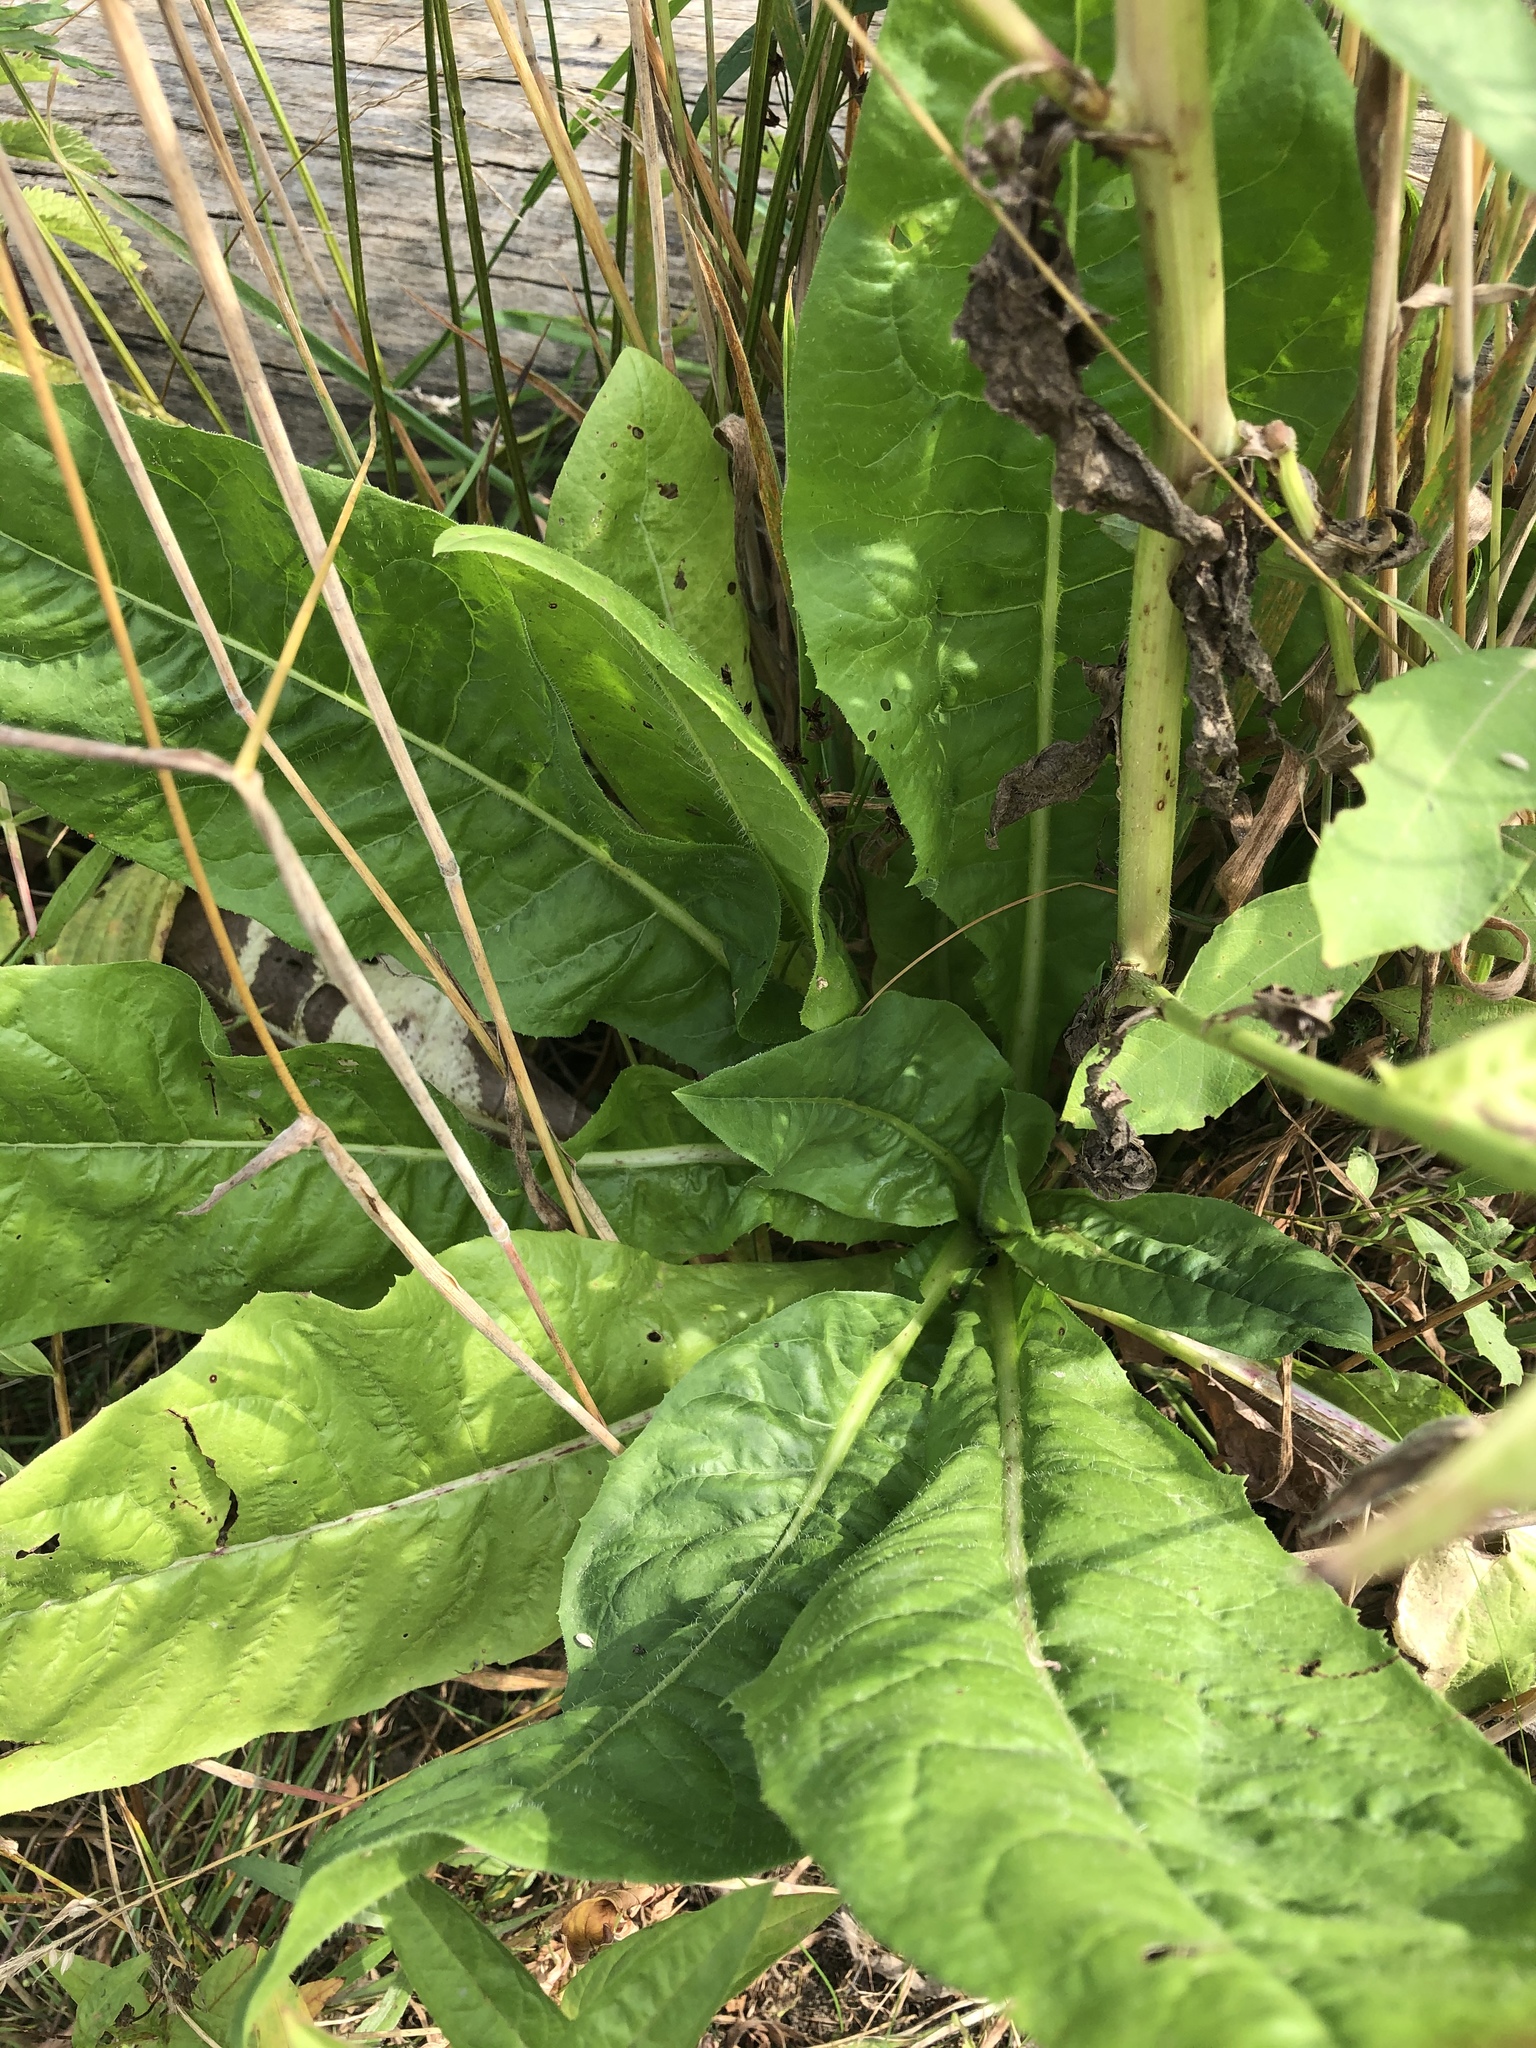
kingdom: Plantae
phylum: Tracheophyta
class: Magnoliopsida
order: Asterales
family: Asteraceae
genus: Cichorium
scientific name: Cichorium intybus
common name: Chicory
